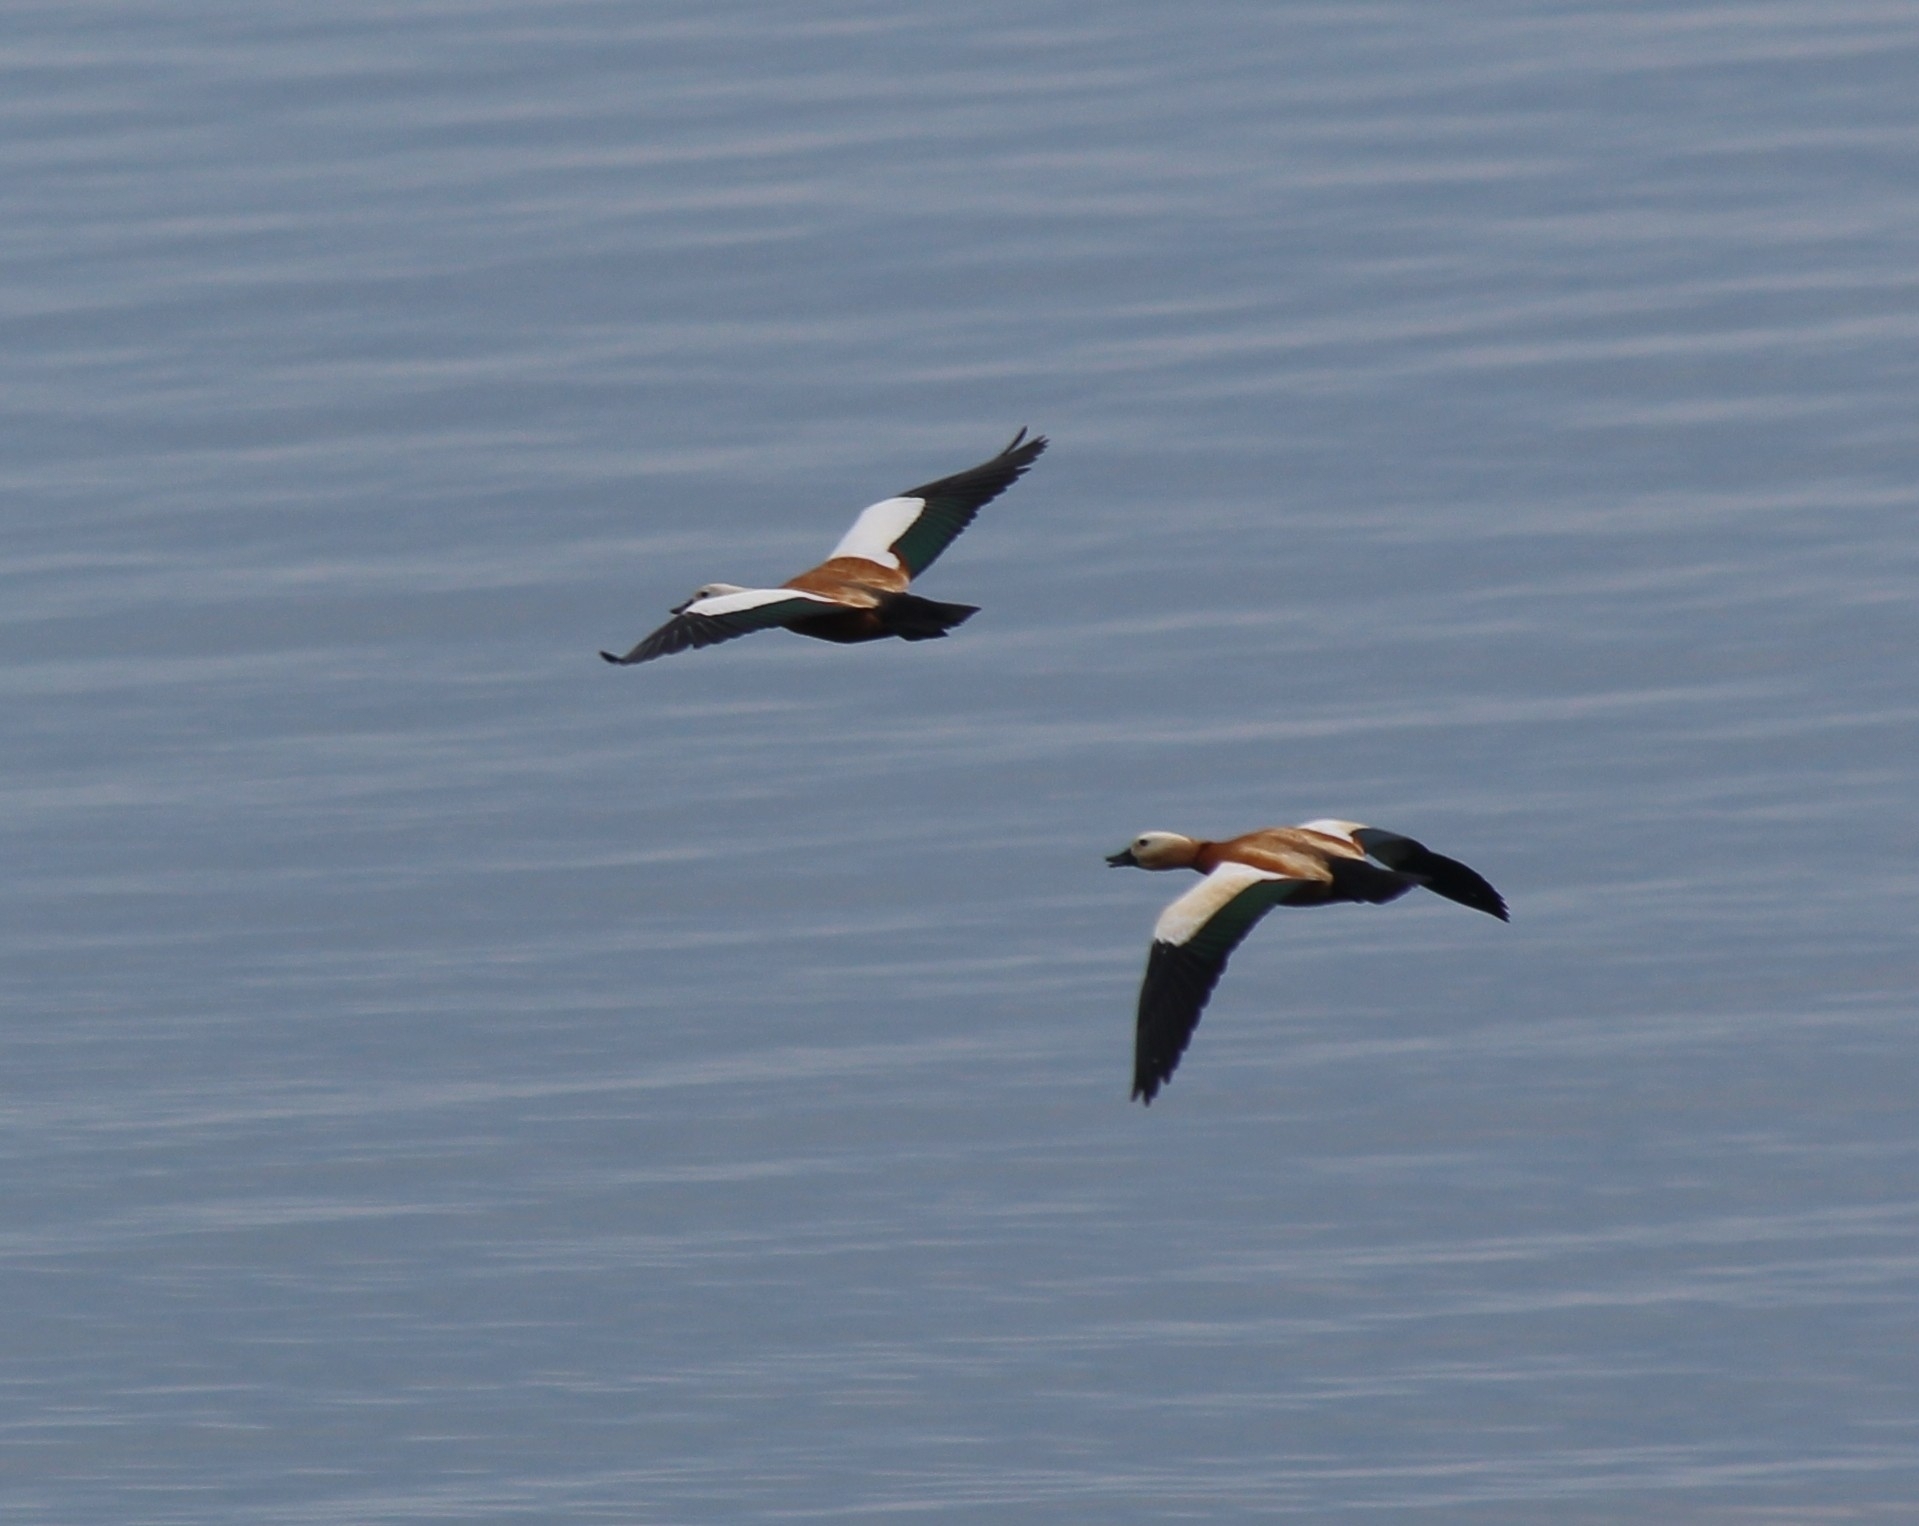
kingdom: Animalia
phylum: Chordata
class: Aves
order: Anseriformes
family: Anatidae
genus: Tadorna
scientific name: Tadorna ferruginea
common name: Ruddy shelduck
